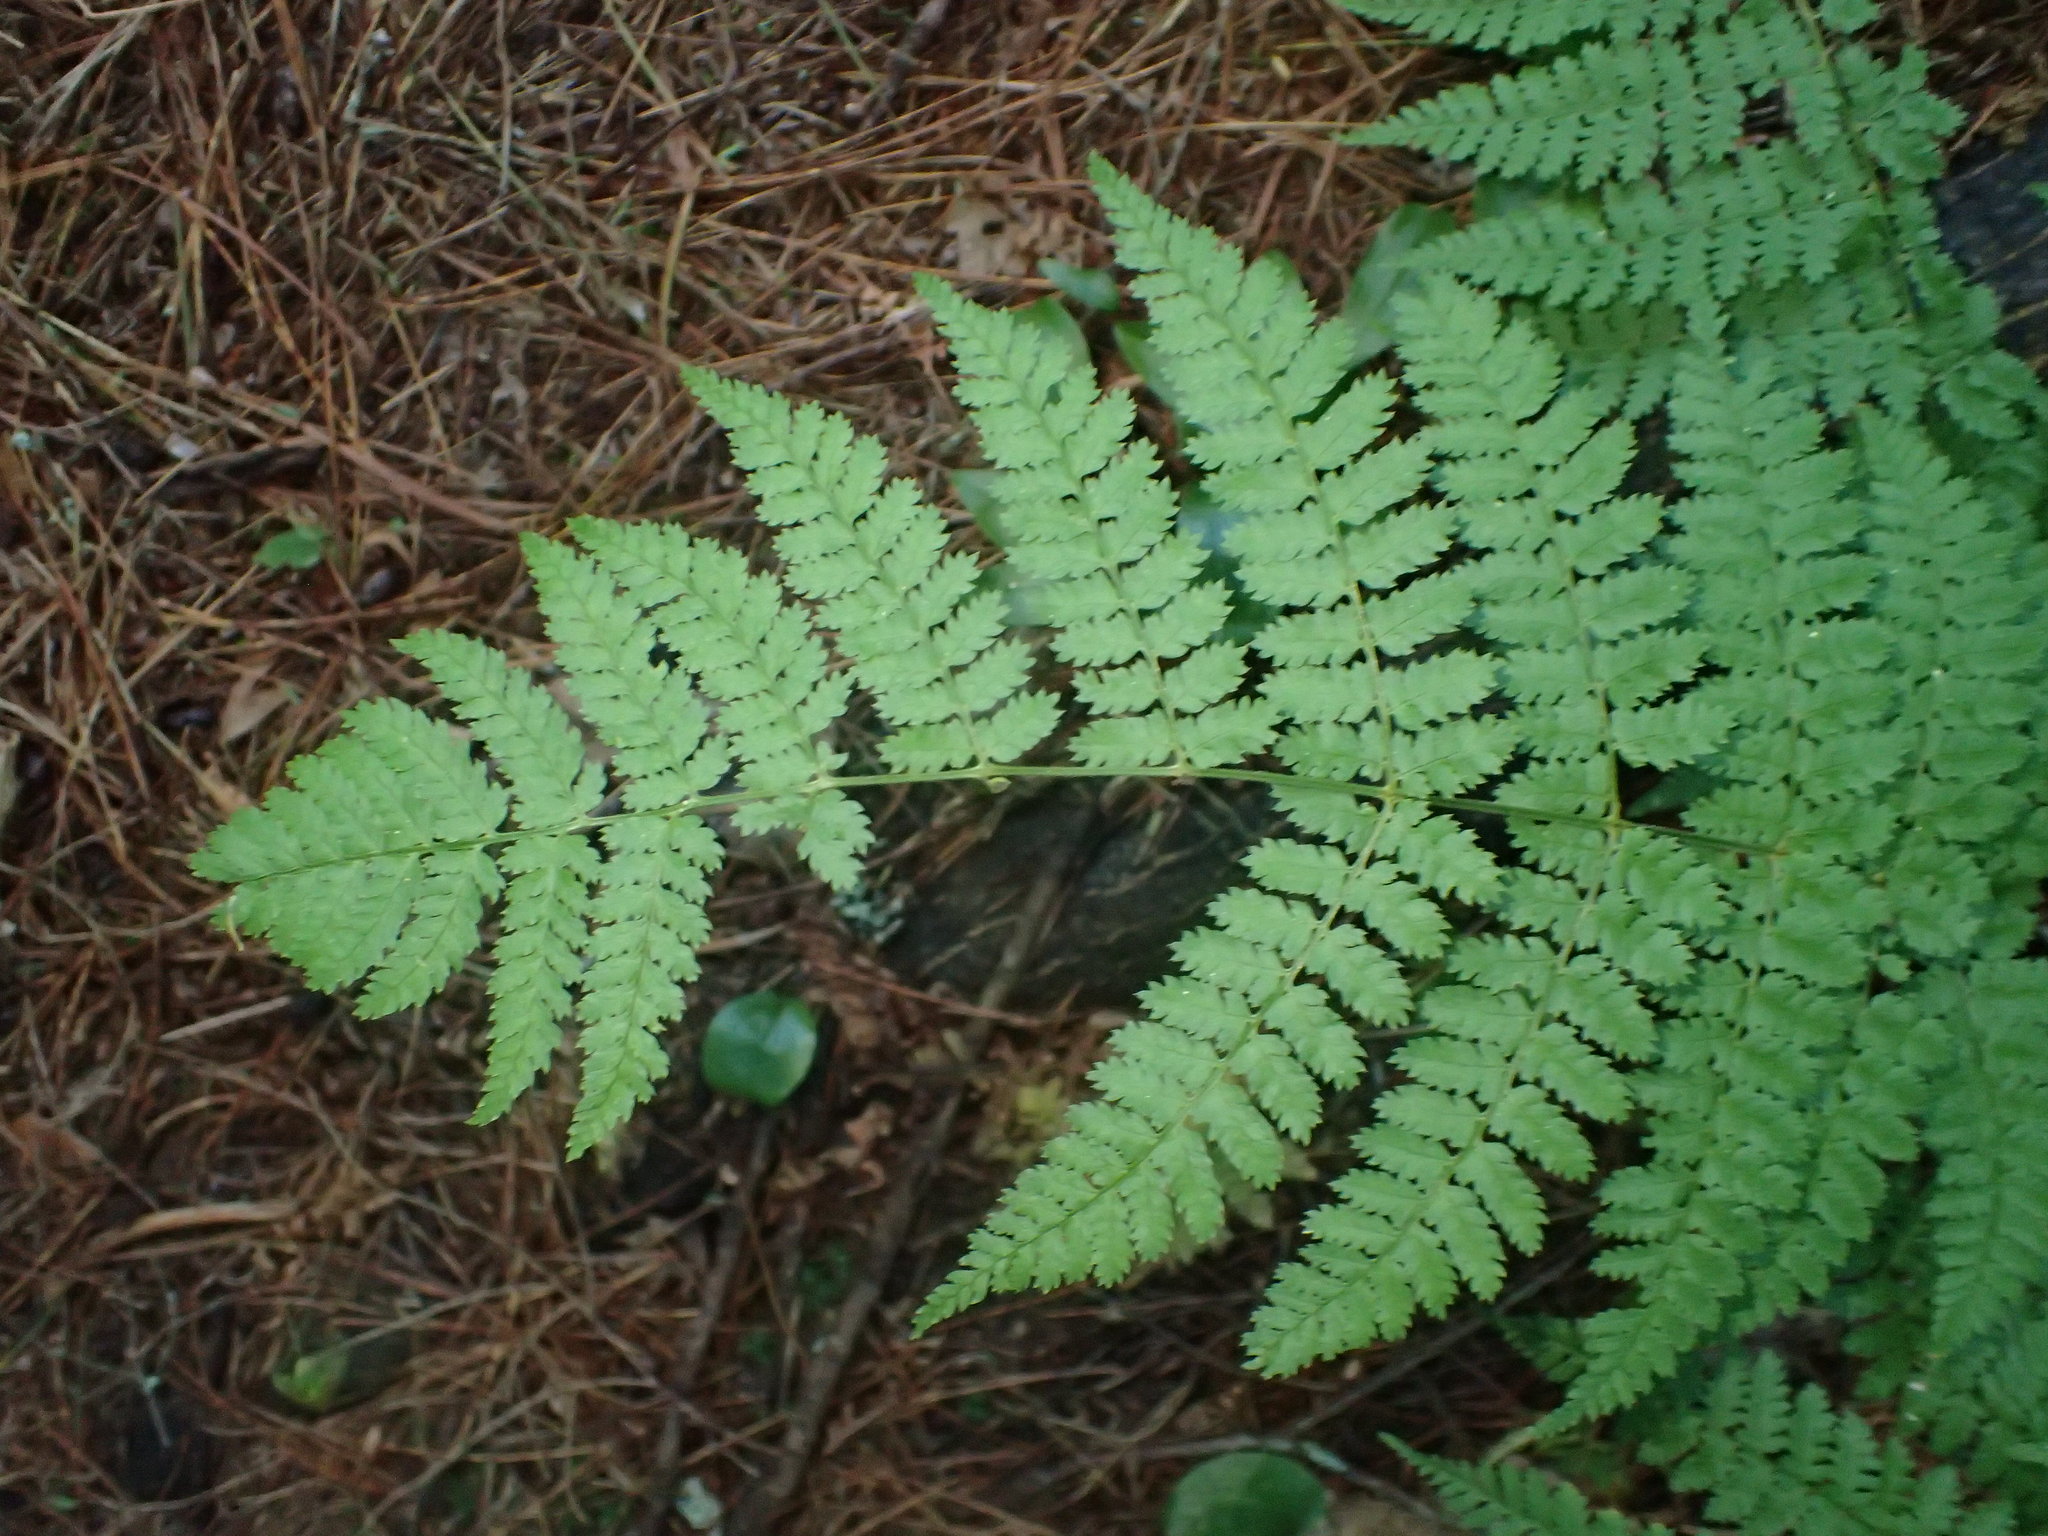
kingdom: Plantae
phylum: Tracheophyta
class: Polypodiopsida
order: Polypodiales
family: Dryopteridaceae
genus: Dryopteris
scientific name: Dryopteris intermedia
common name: Evergreen wood fern
